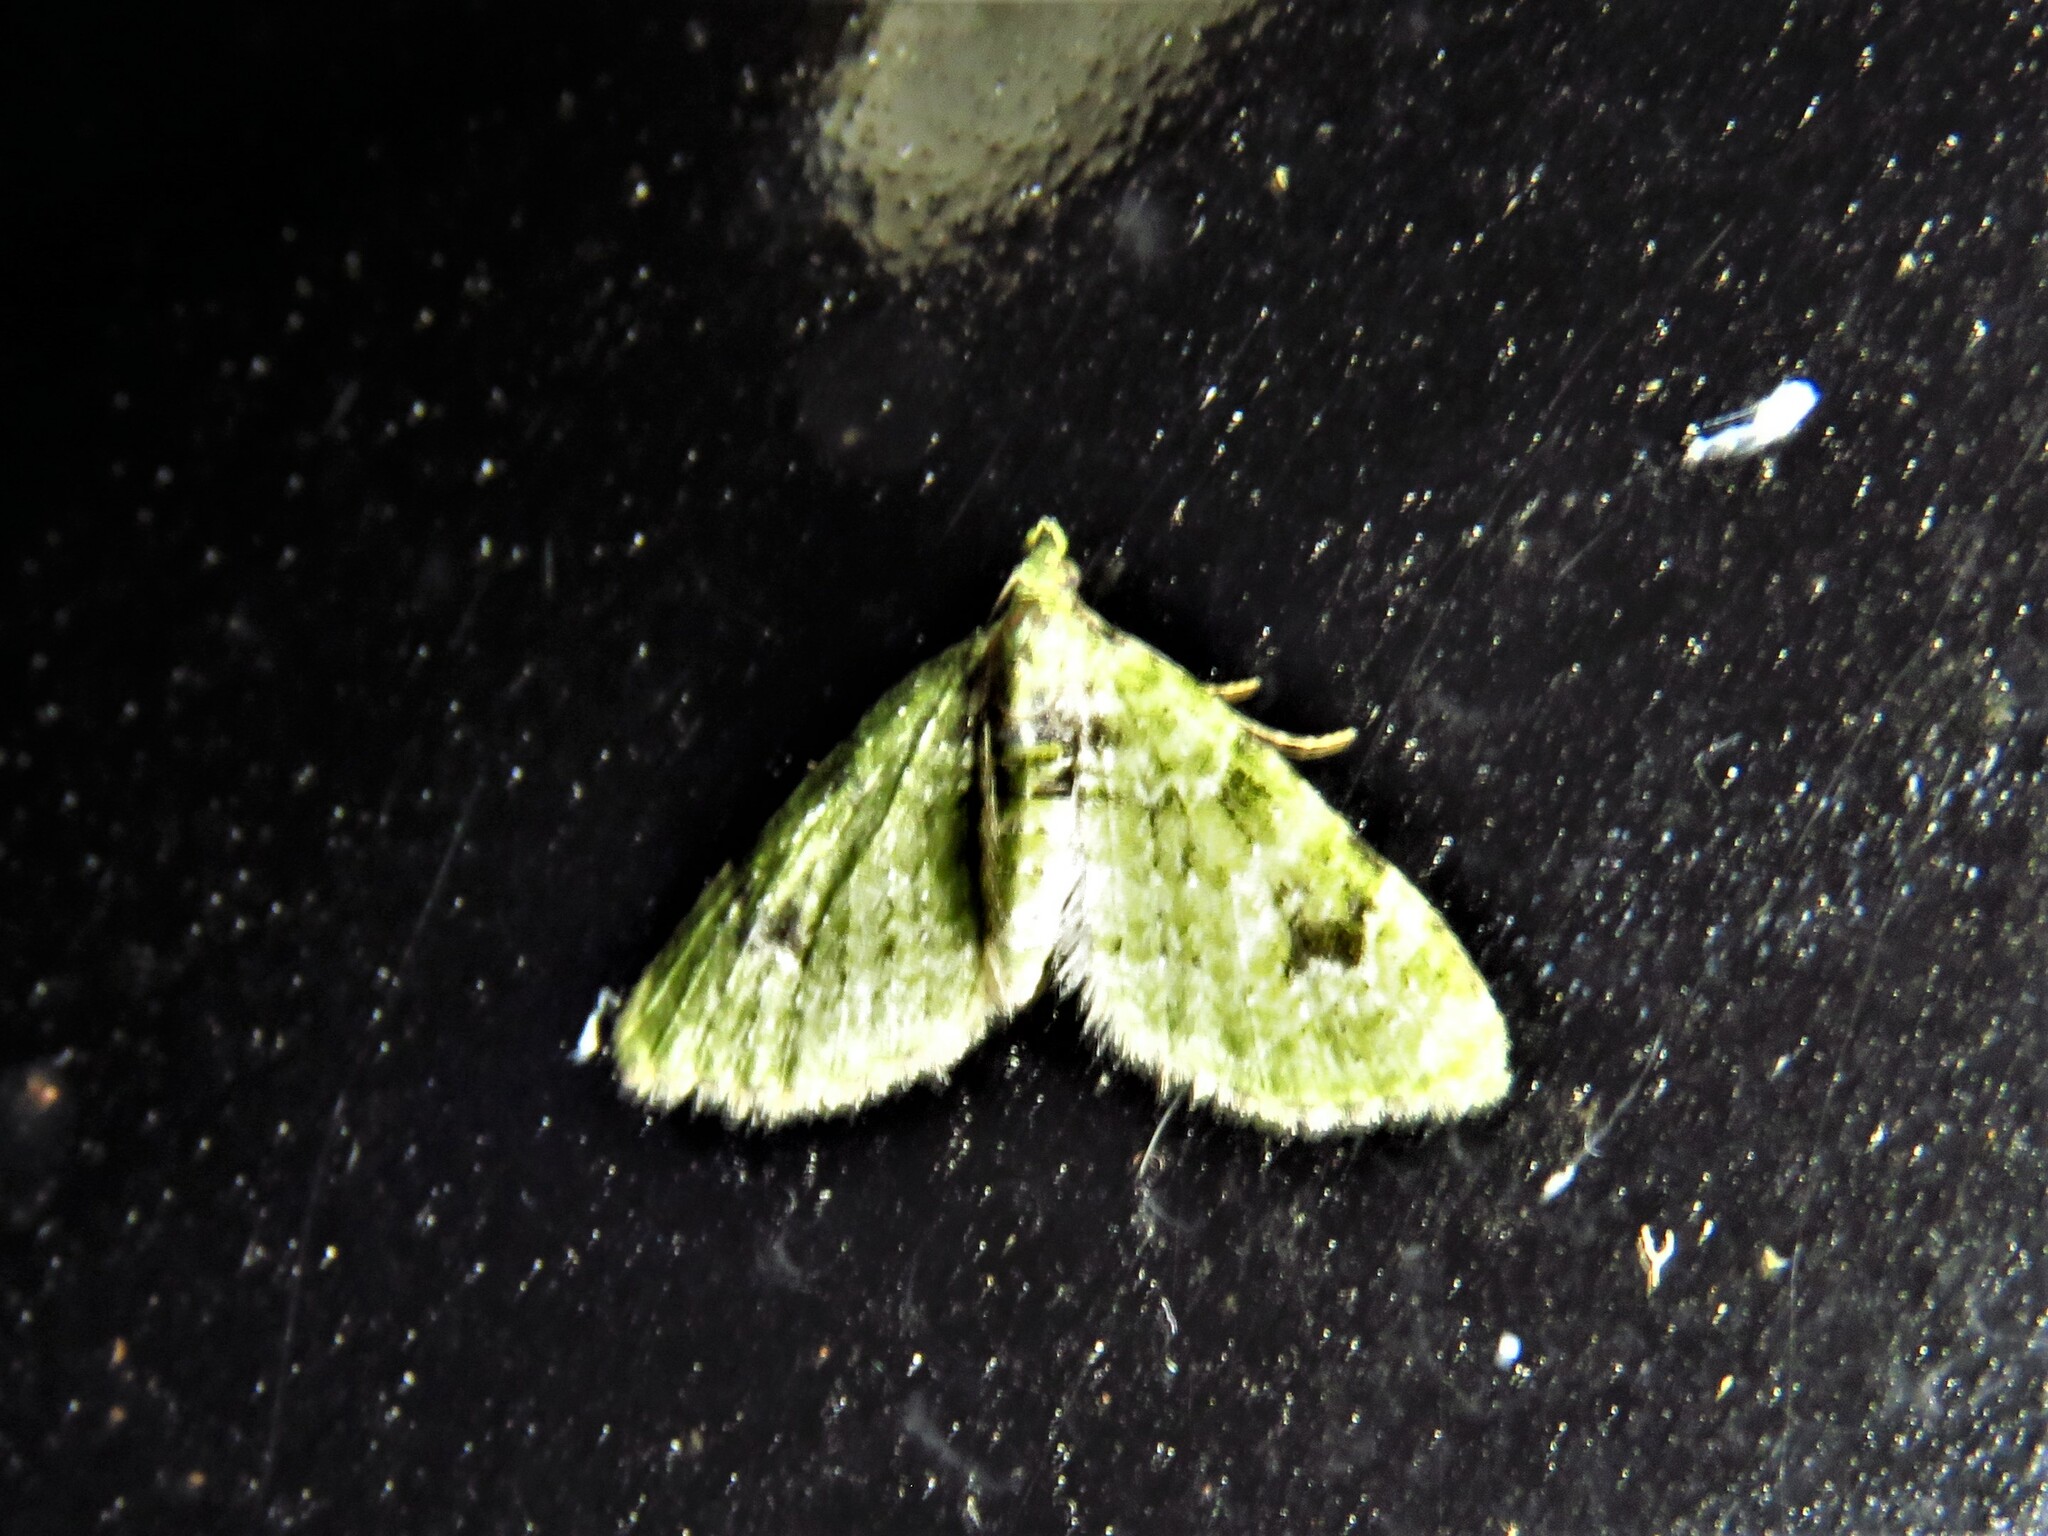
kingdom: Animalia
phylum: Arthropoda
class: Insecta
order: Lepidoptera
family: Geometridae
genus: Chloroclystis
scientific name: Chloroclystis v-ata
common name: V-pug
